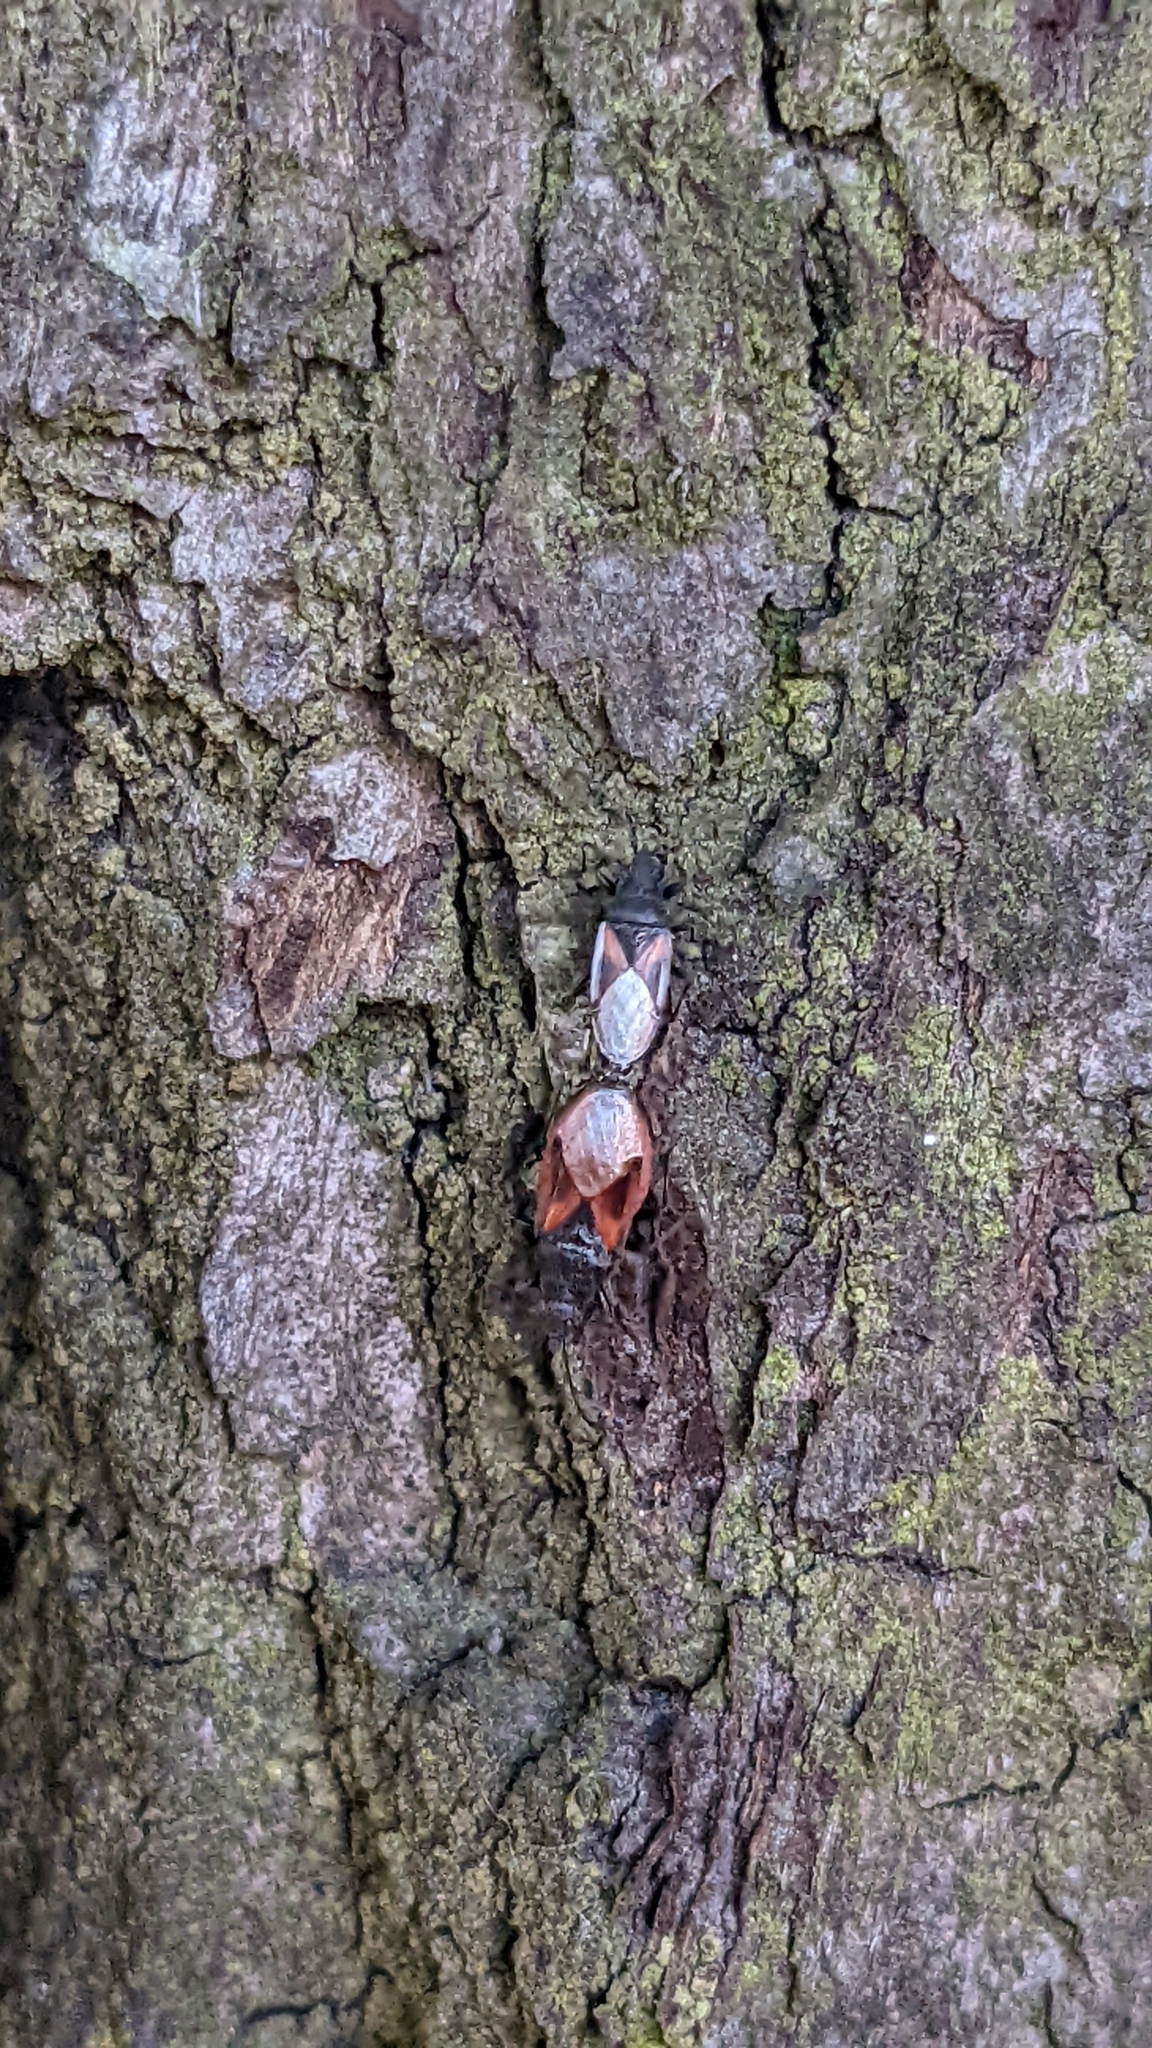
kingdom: Animalia
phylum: Arthropoda
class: Insecta
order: Hemiptera
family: Oxycarenidae
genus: Oxycarenus
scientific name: Oxycarenus lavaterae
